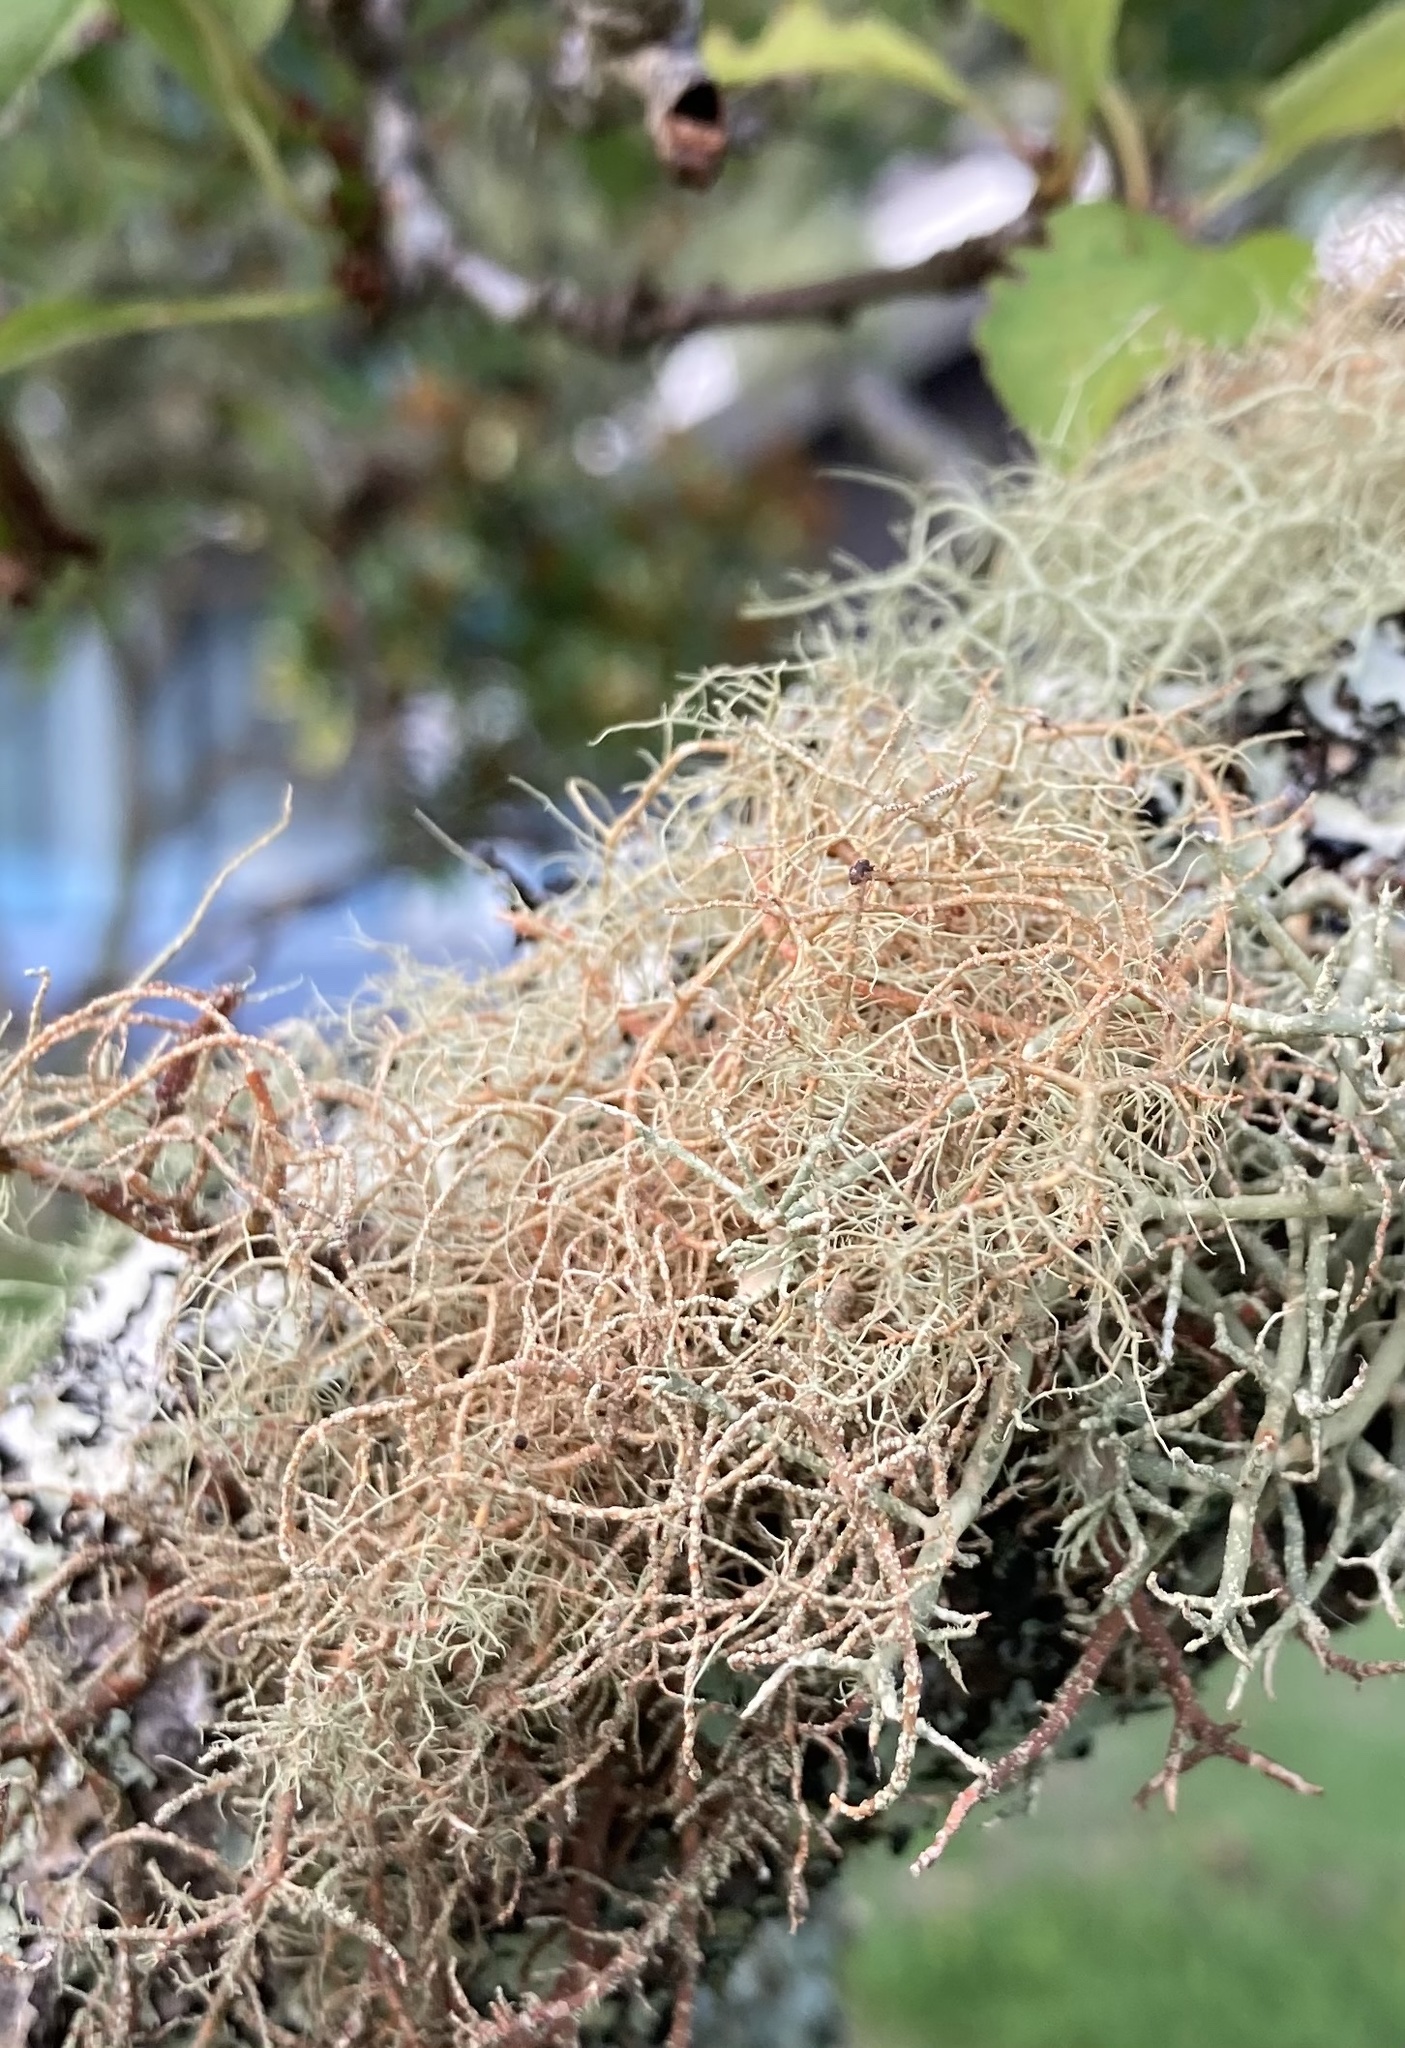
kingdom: Fungi
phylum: Ascomycota
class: Lecanoromycetes
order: Lecanorales
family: Parmeliaceae
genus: Usnea
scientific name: Usnea rubicunda
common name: Red beard lichen
